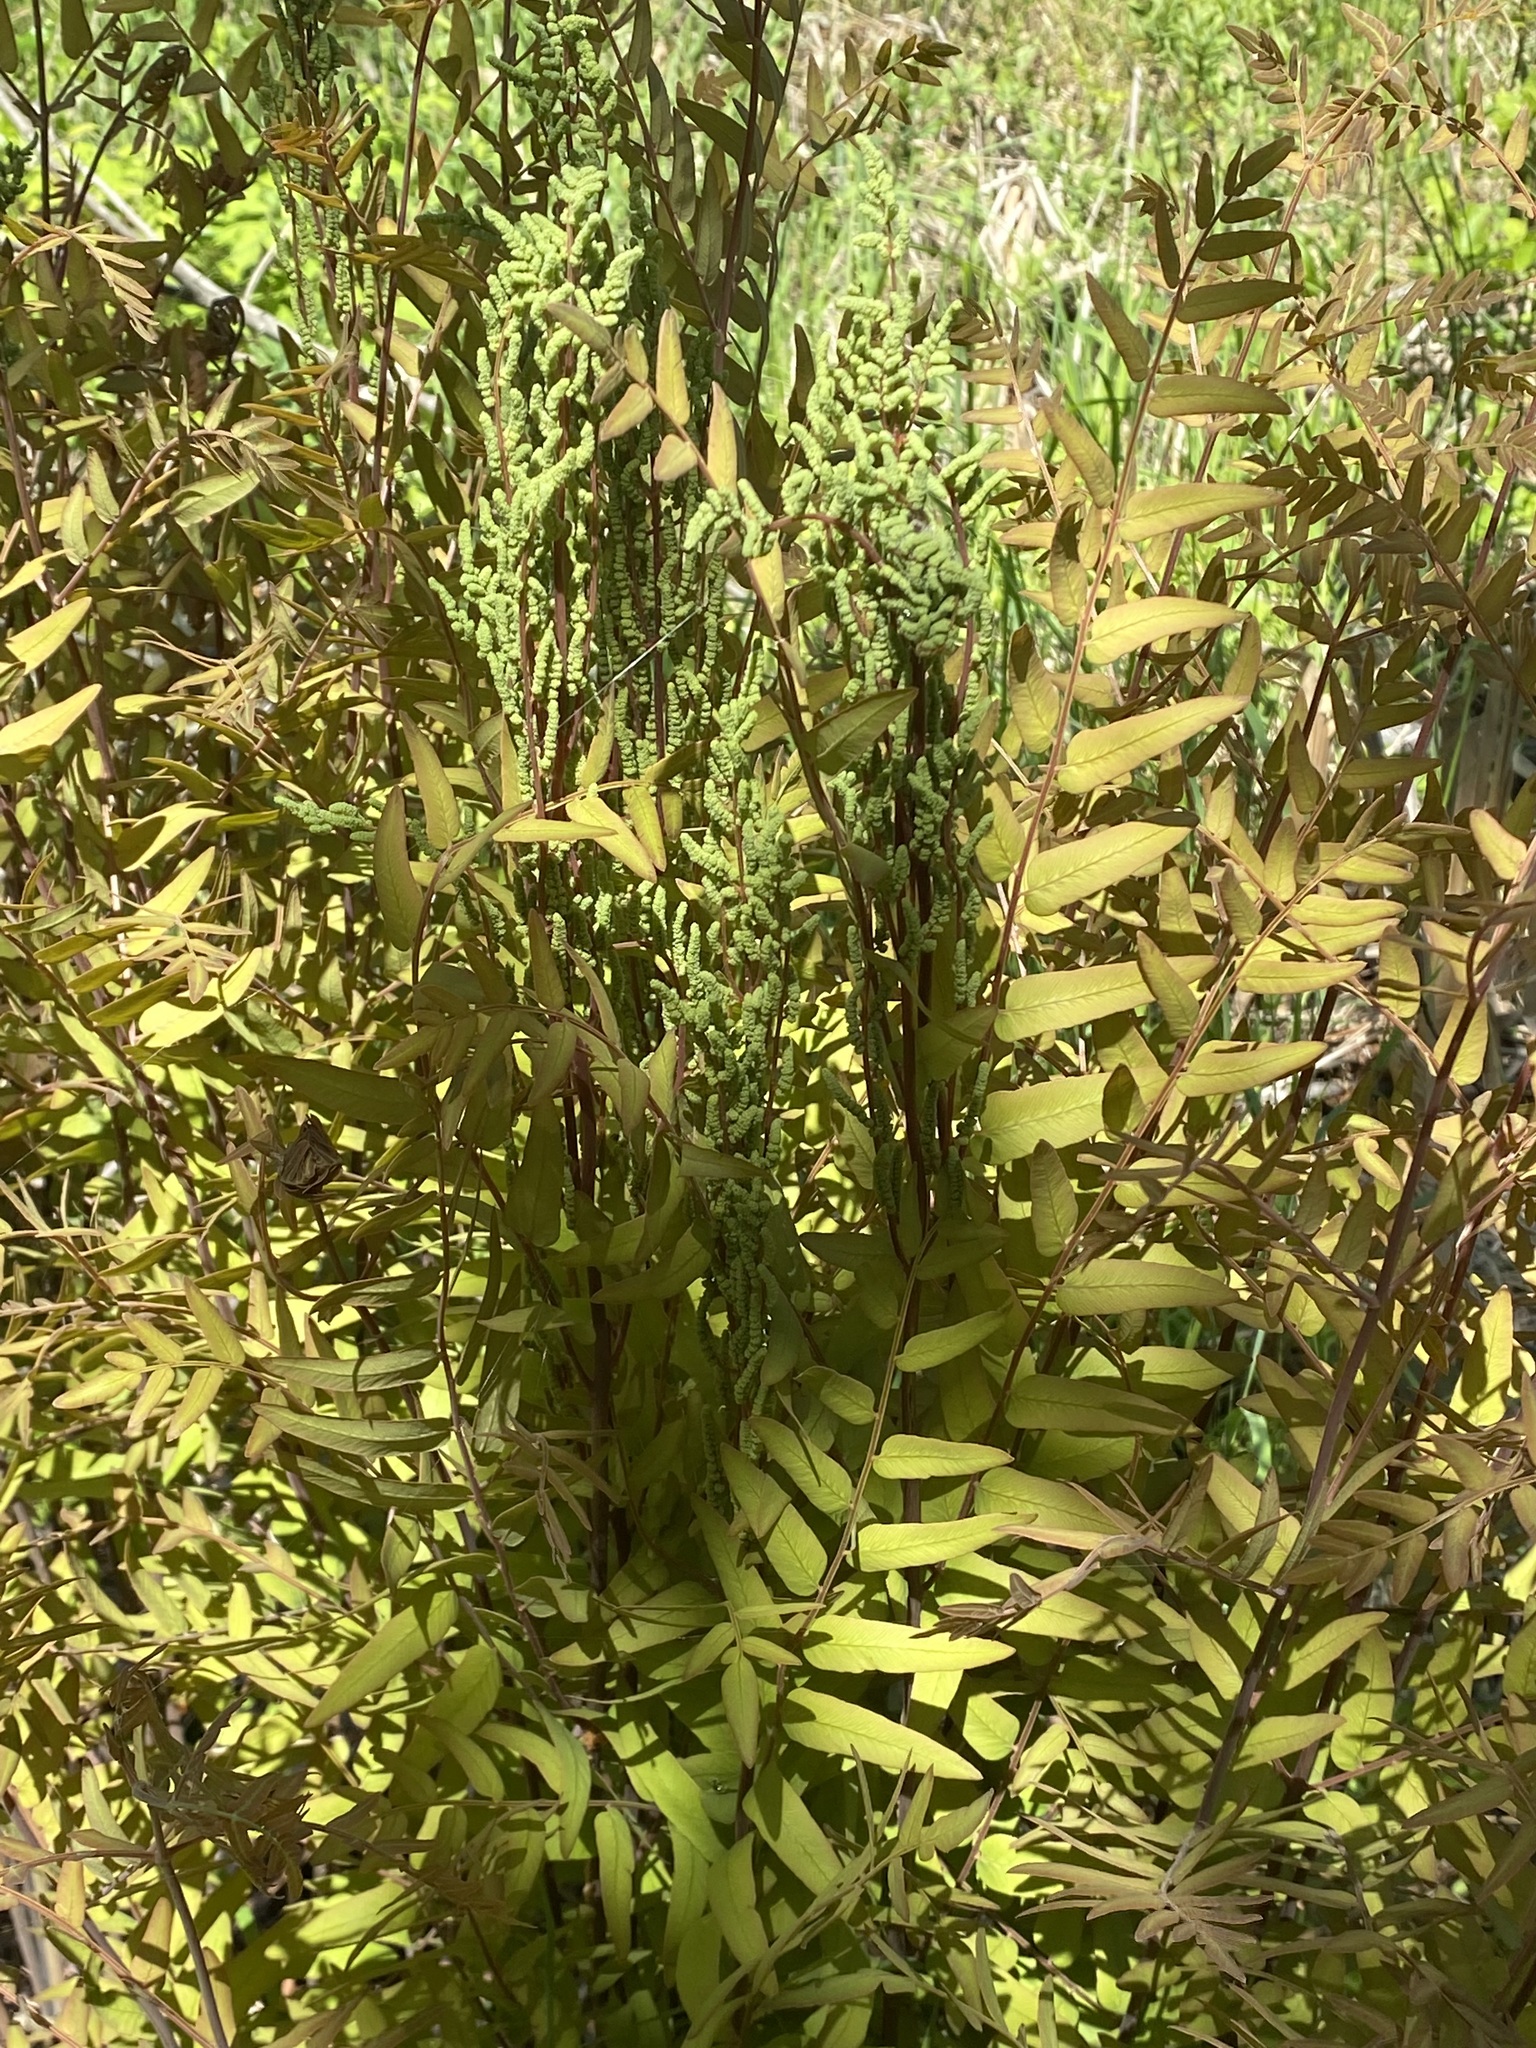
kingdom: Plantae
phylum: Tracheophyta
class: Polypodiopsida
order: Osmundales
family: Osmundaceae
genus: Osmunda
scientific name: Osmunda spectabilis
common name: American royal fern
